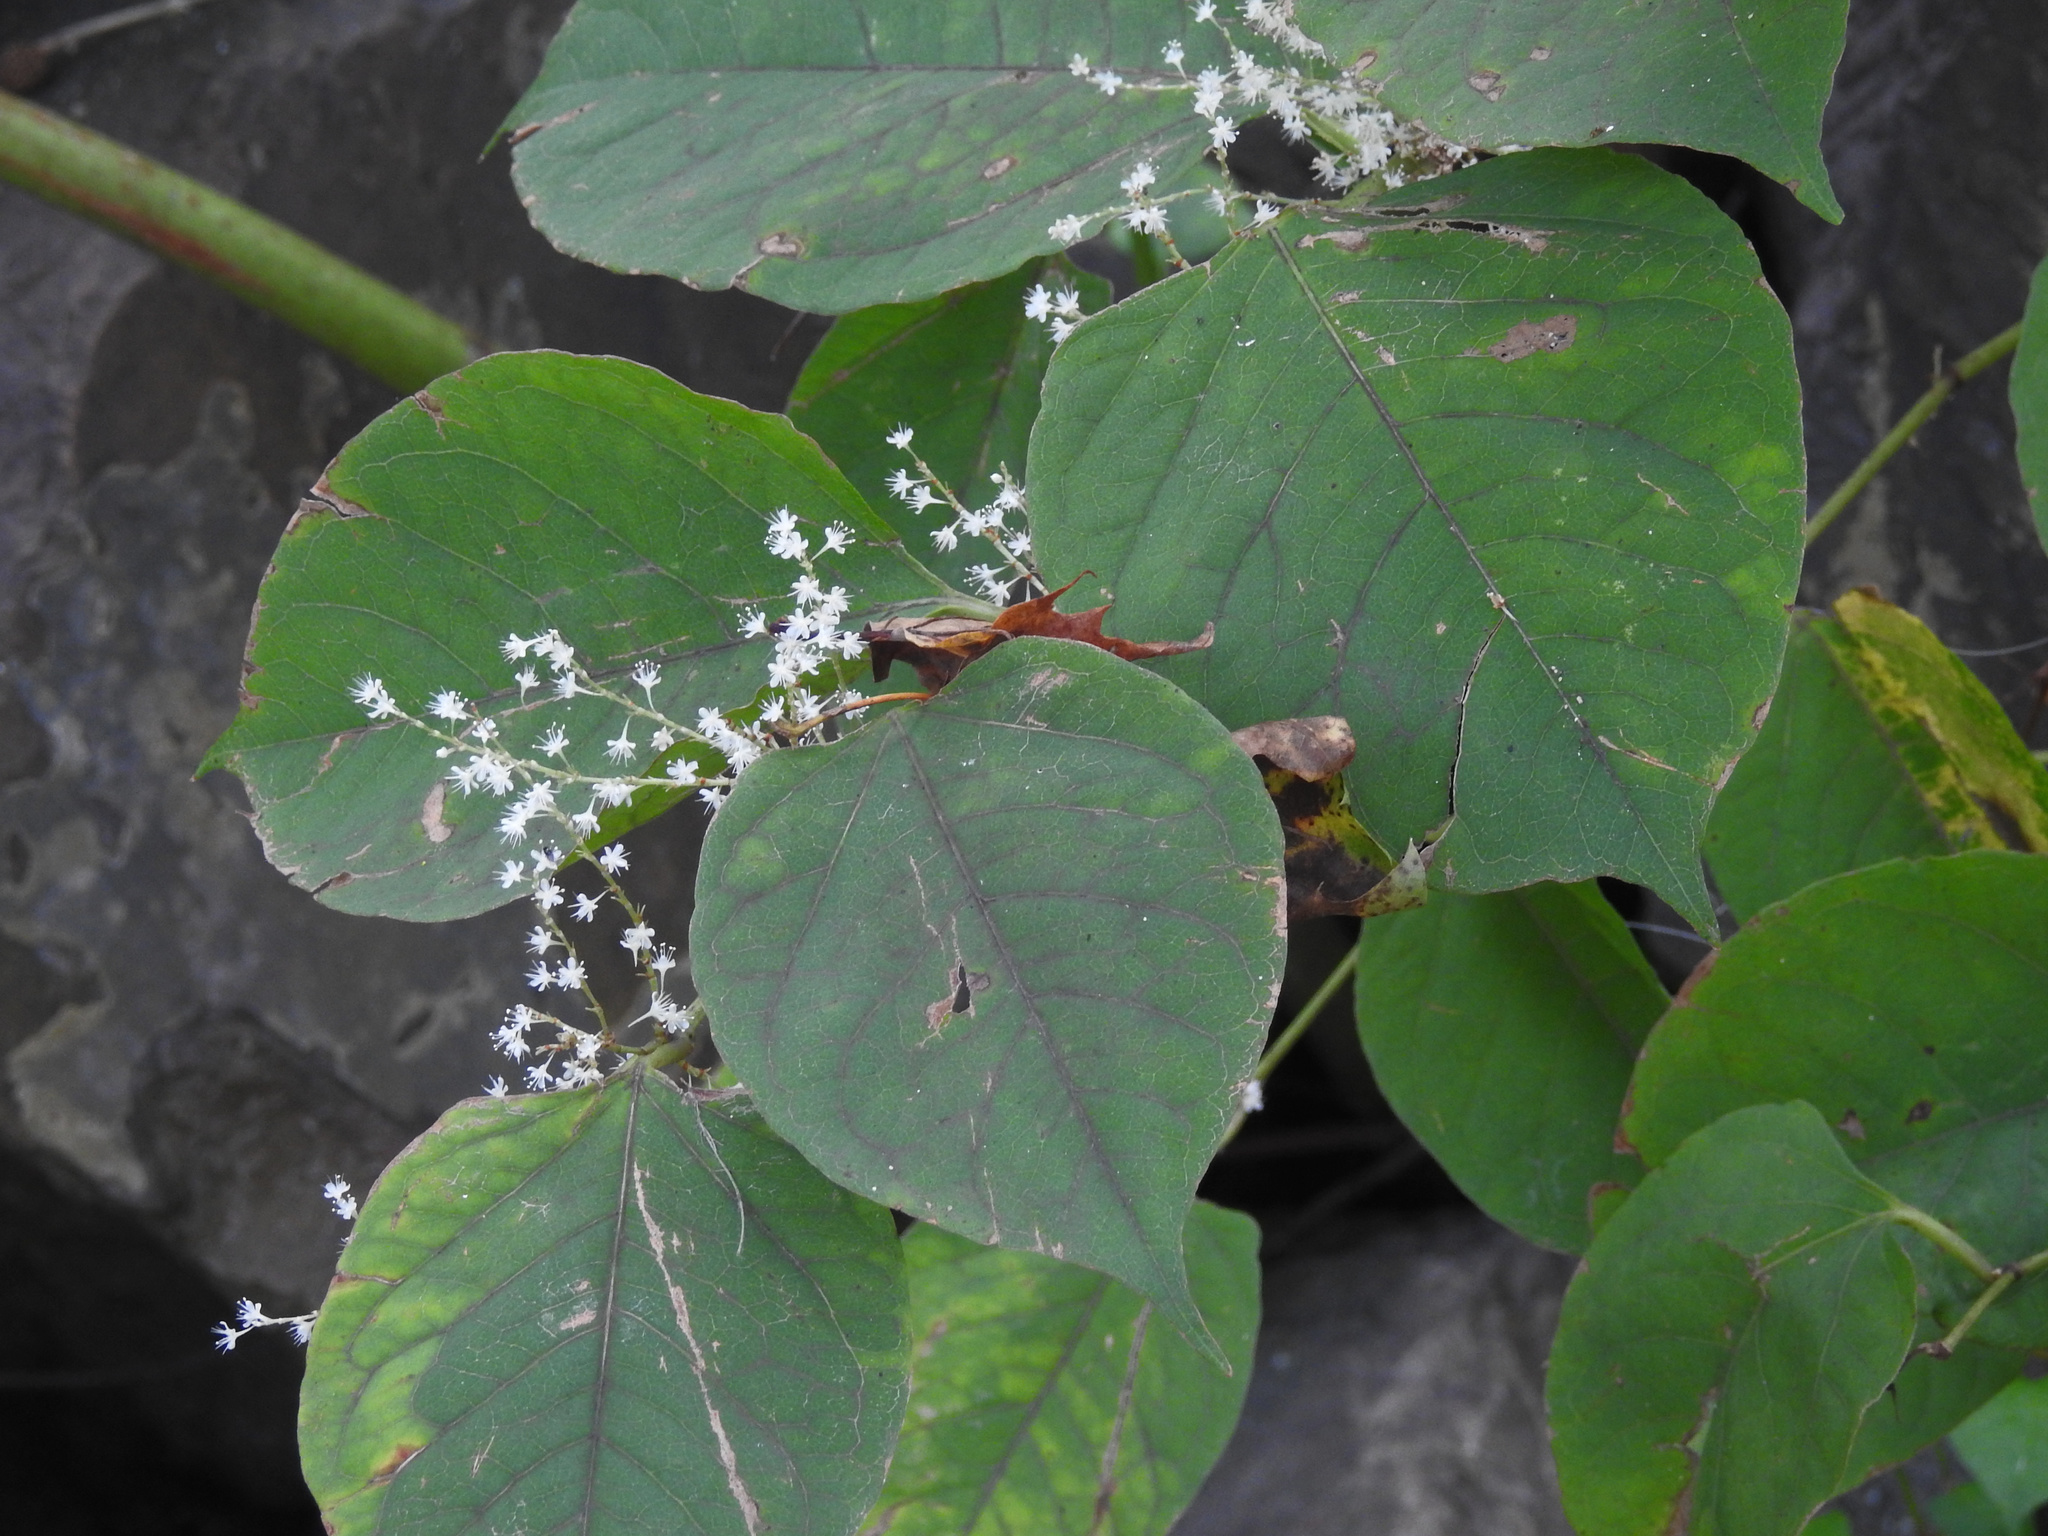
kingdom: Plantae
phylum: Tracheophyta
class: Magnoliopsida
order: Caryophyllales
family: Polygonaceae
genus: Reynoutria
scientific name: Reynoutria japonica
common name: Japanese knotweed
